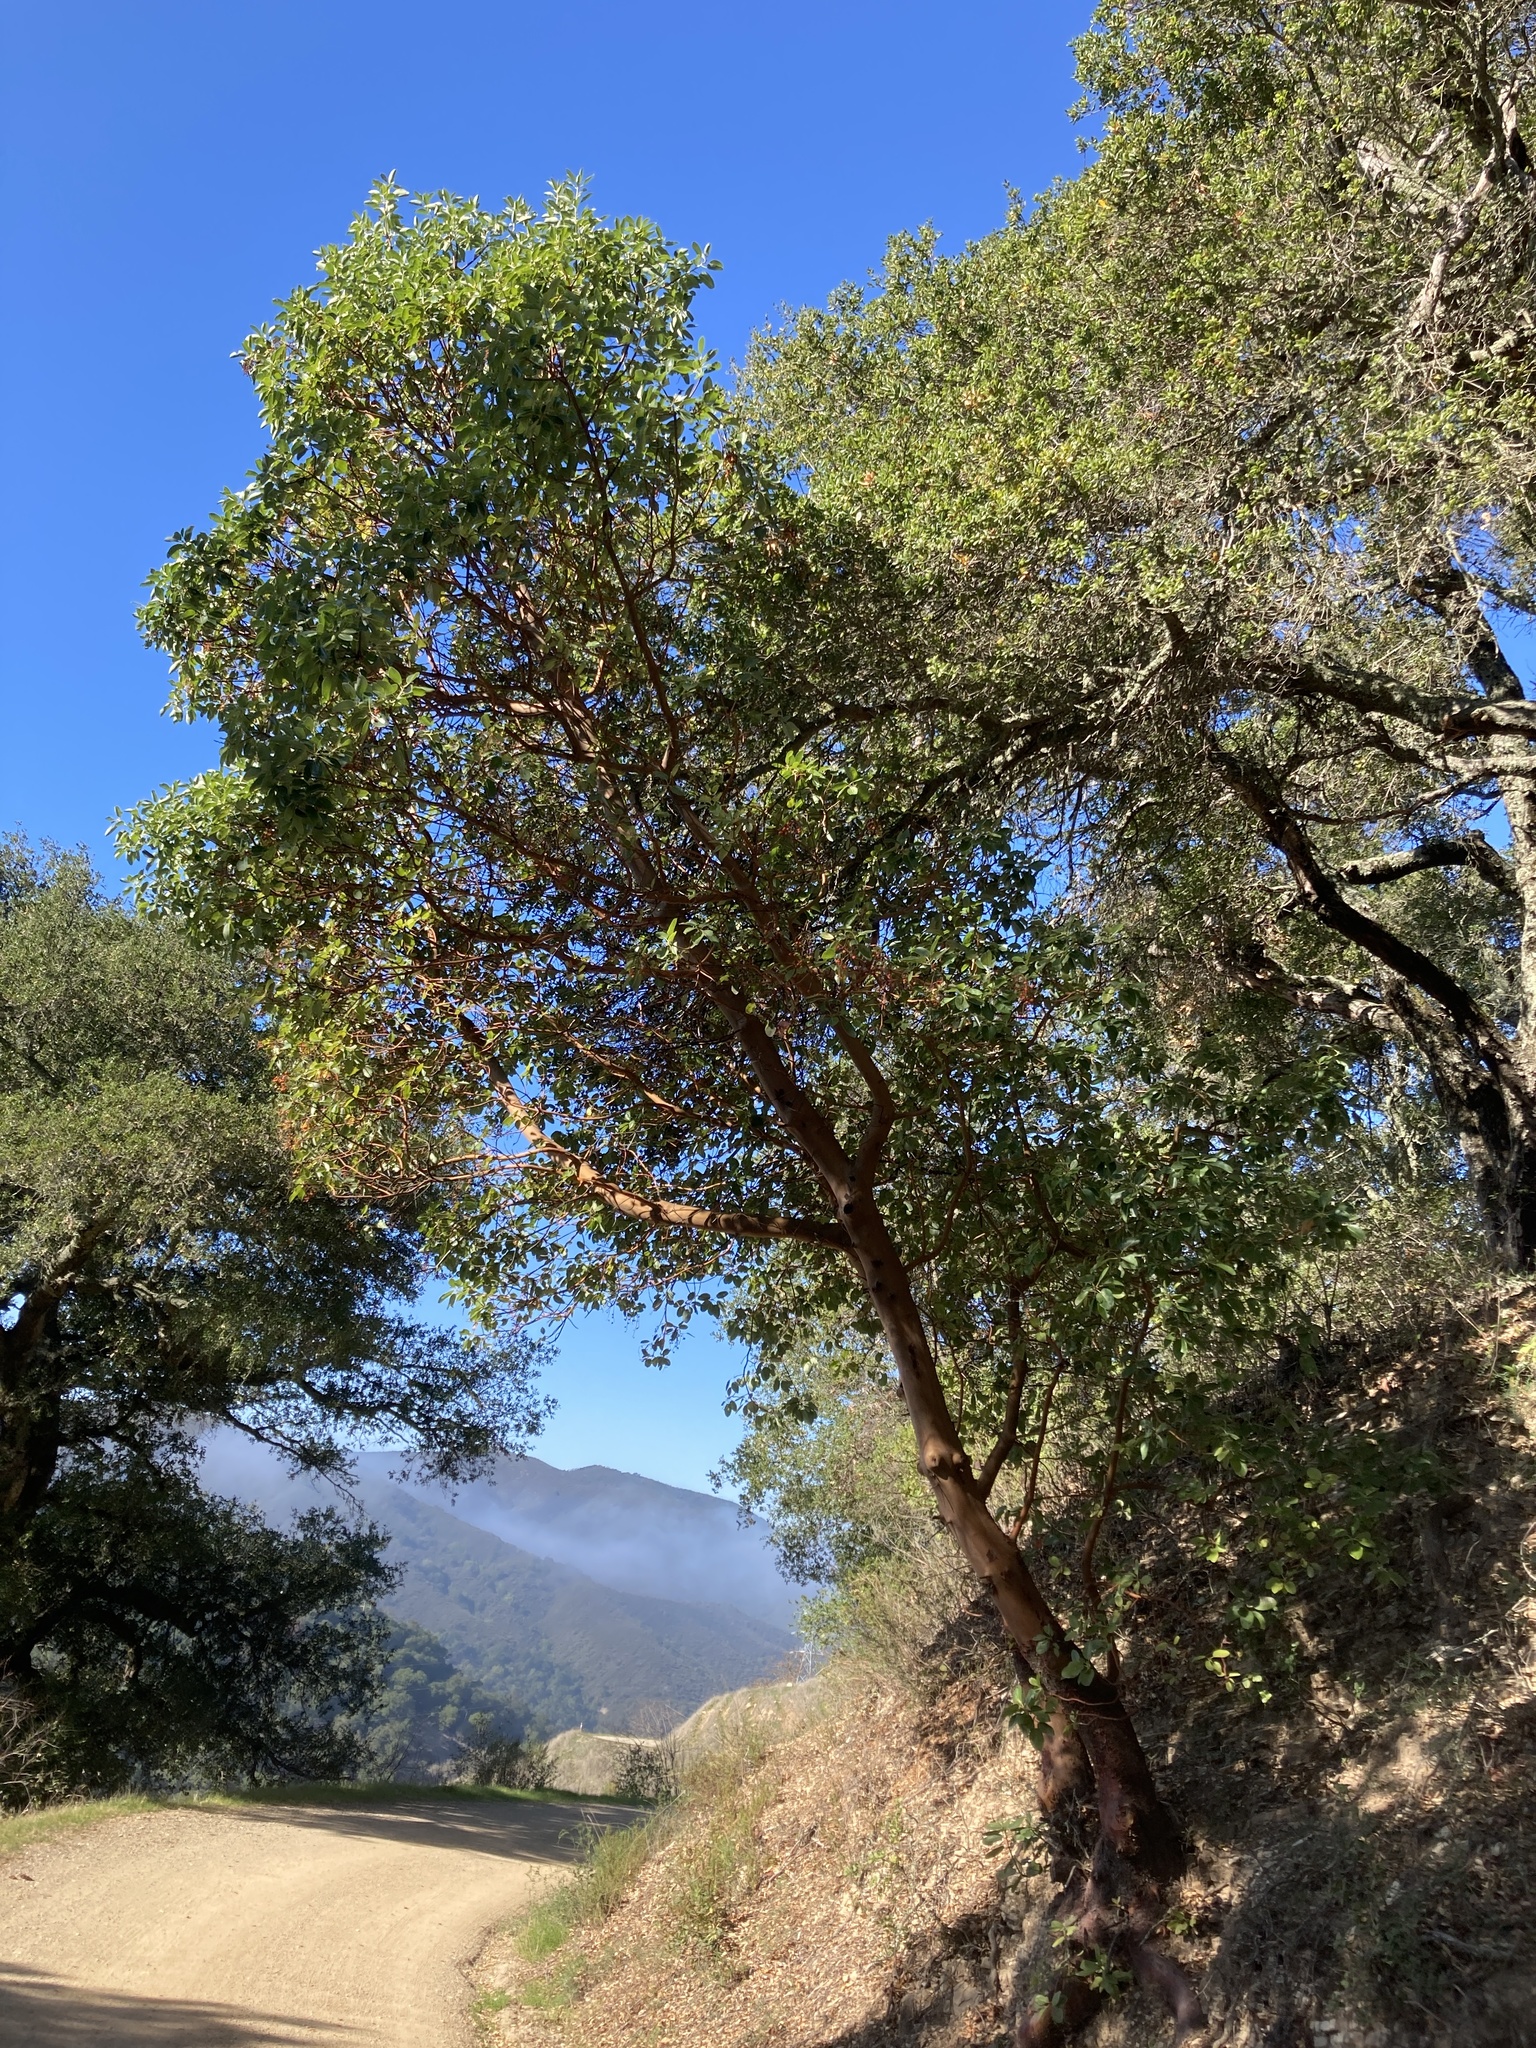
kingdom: Plantae
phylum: Tracheophyta
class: Magnoliopsida
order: Ericales
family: Ericaceae
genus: Arbutus
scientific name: Arbutus menziesii
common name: Pacific madrone
